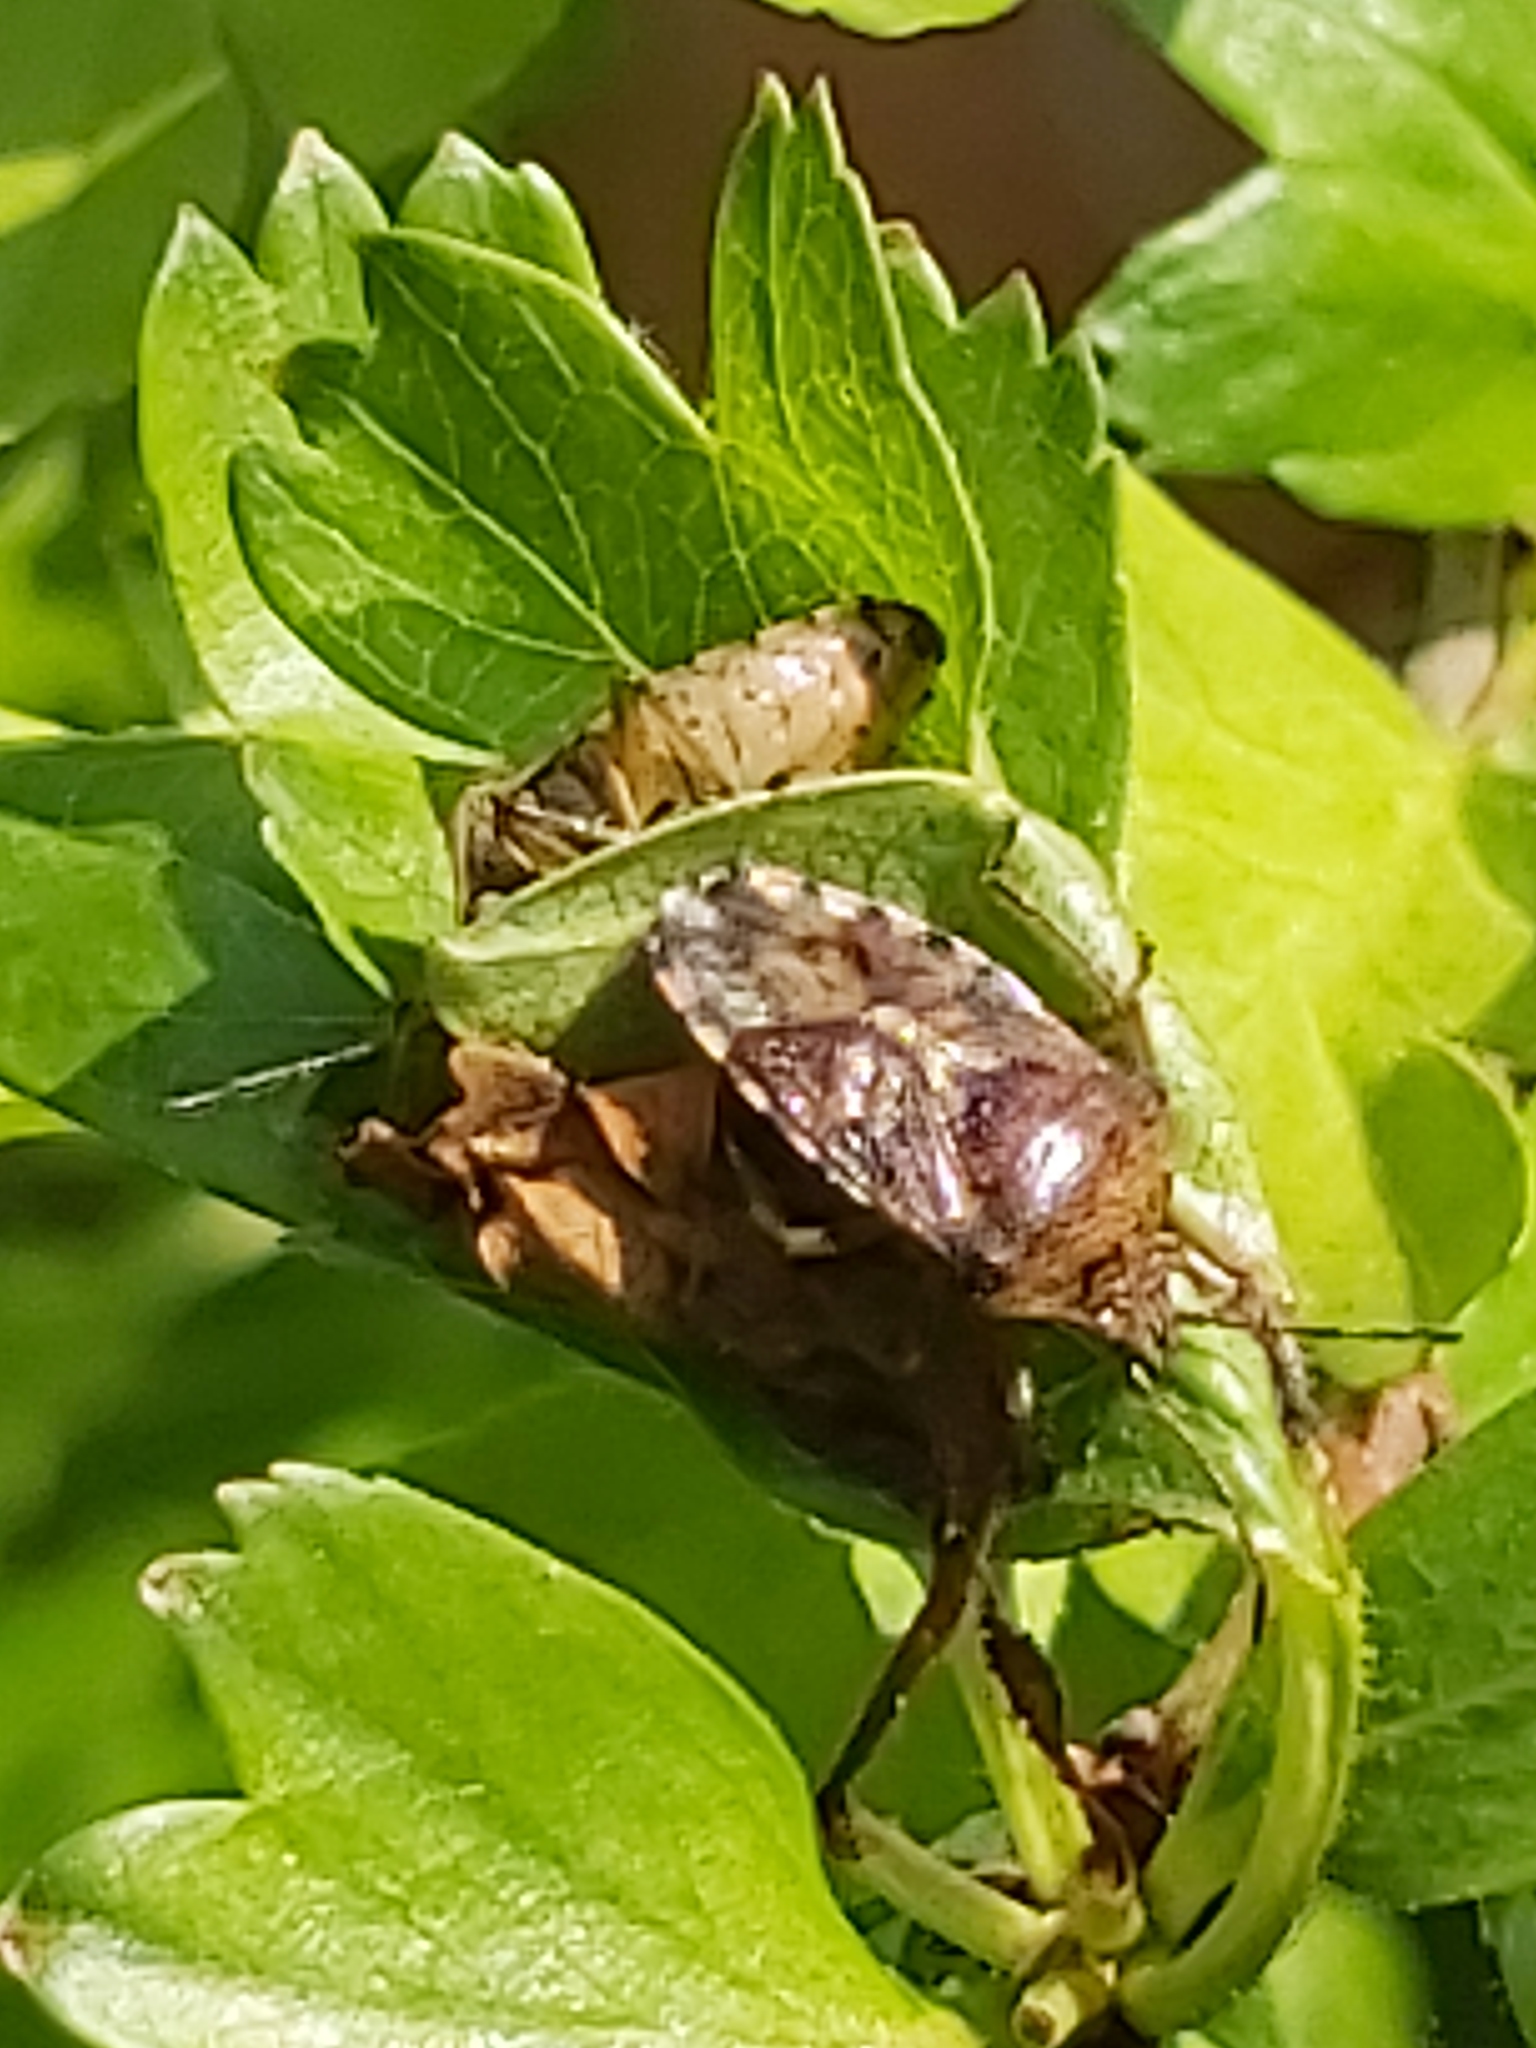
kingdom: Animalia
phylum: Arthropoda
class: Insecta
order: Hemiptera
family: Acanthosomatidae
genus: Elasmucha
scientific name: Elasmucha grisea
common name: Parent bug
